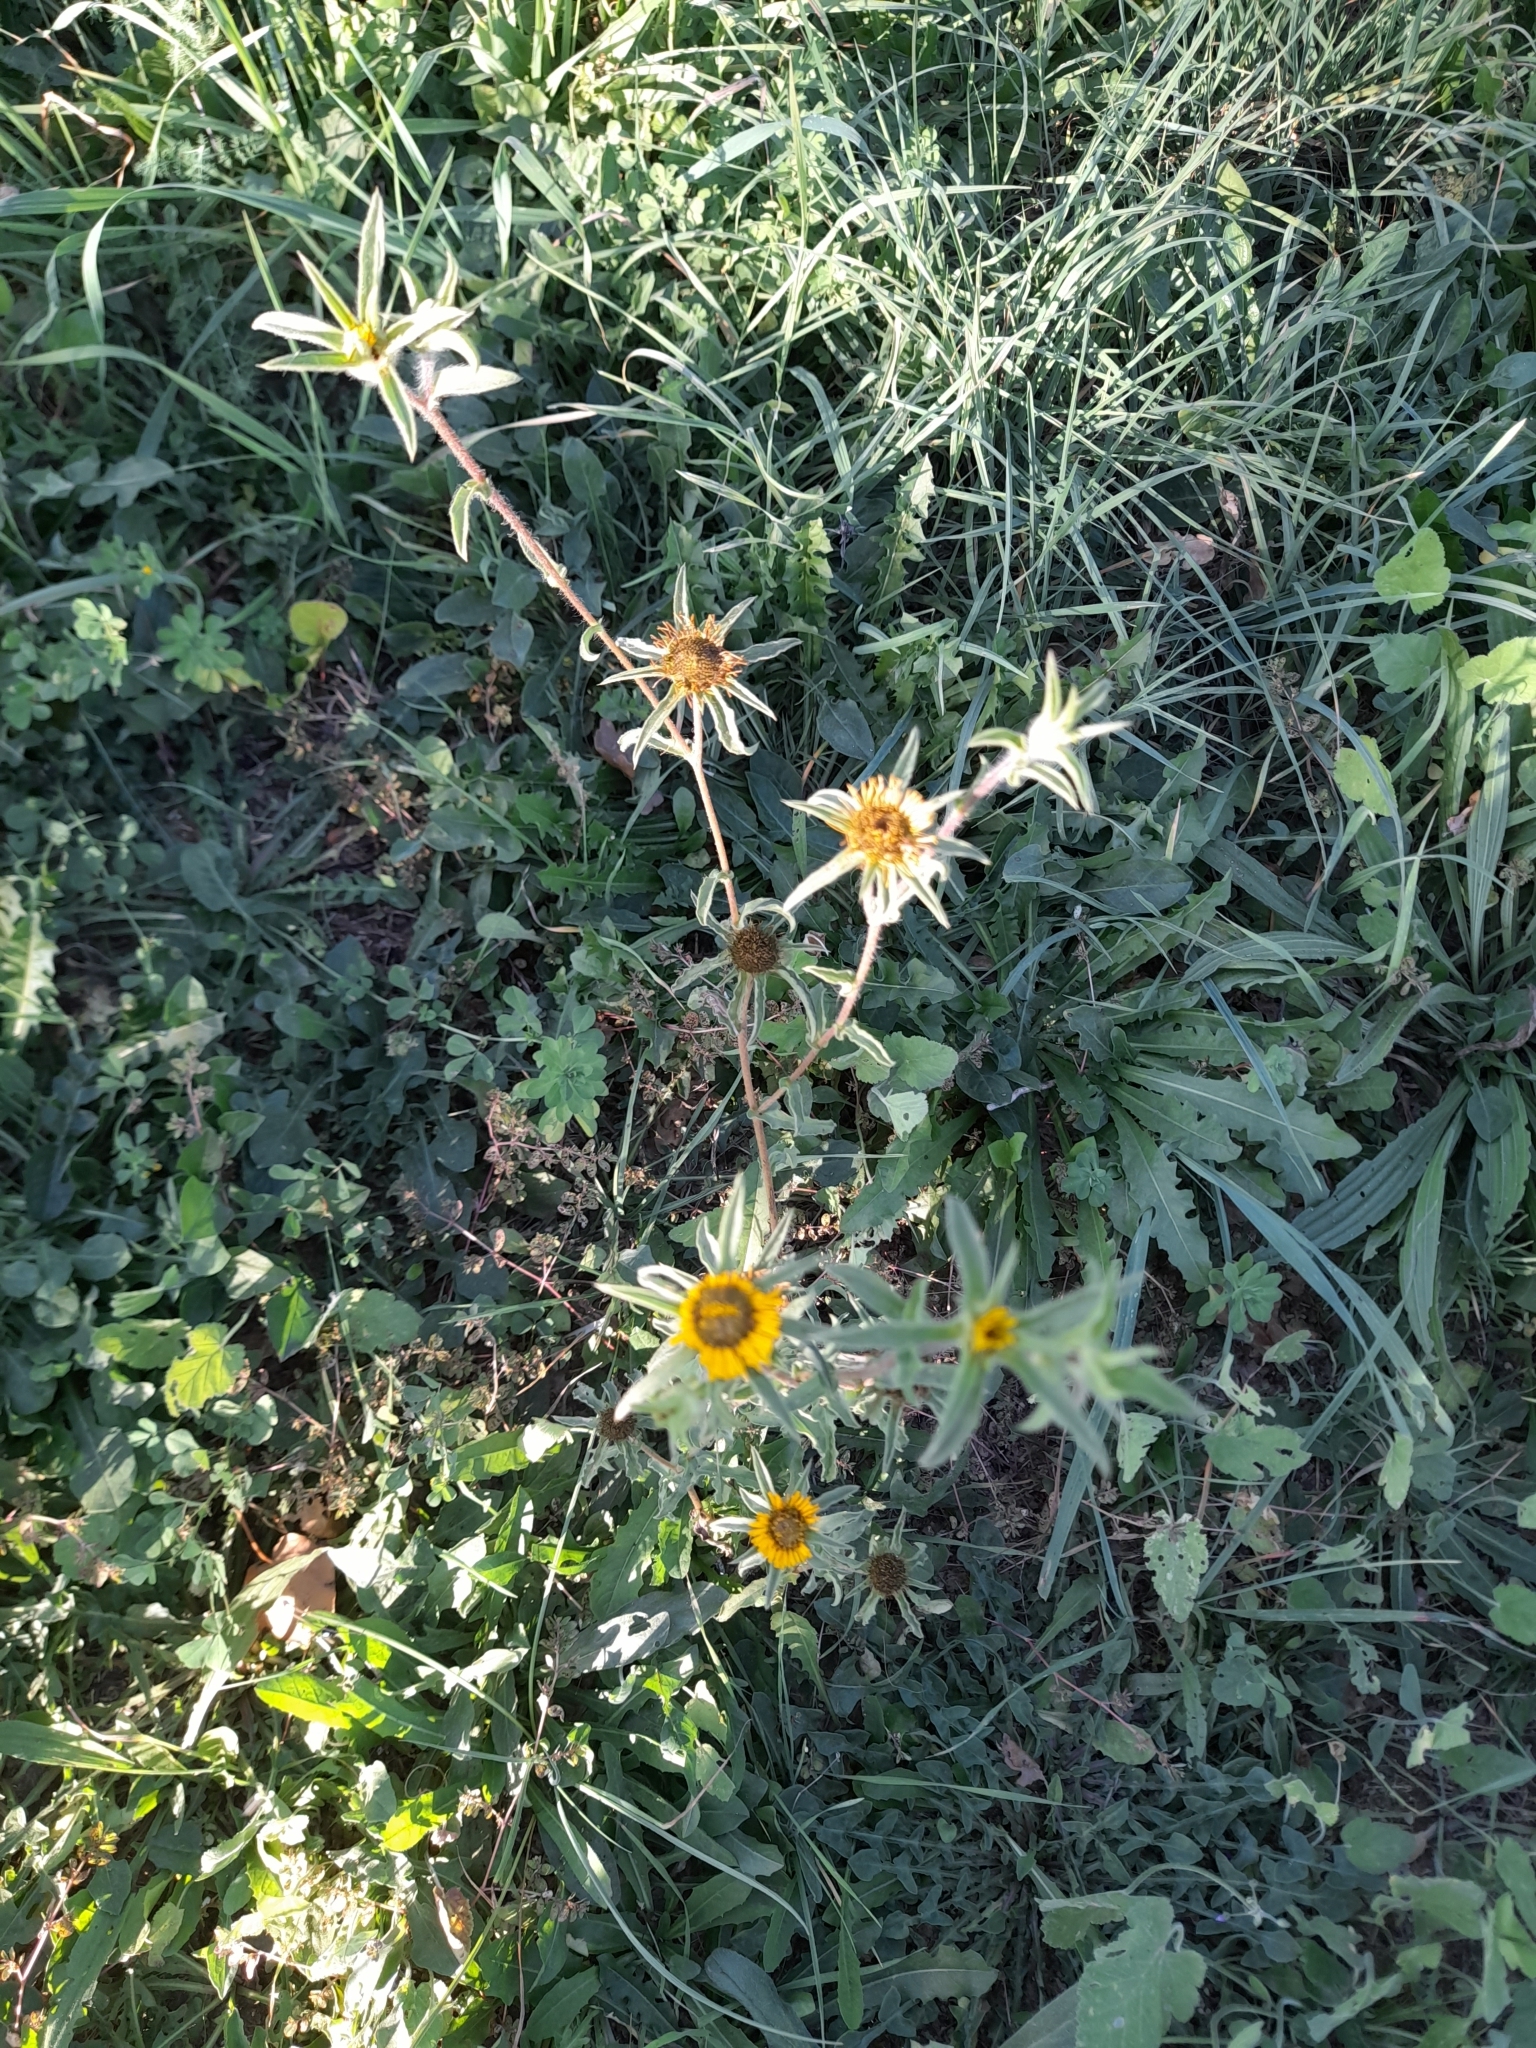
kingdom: Plantae
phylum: Tracheophyta
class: Magnoliopsida
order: Asterales
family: Asteraceae
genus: Pallenis
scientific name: Pallenis spinosa
